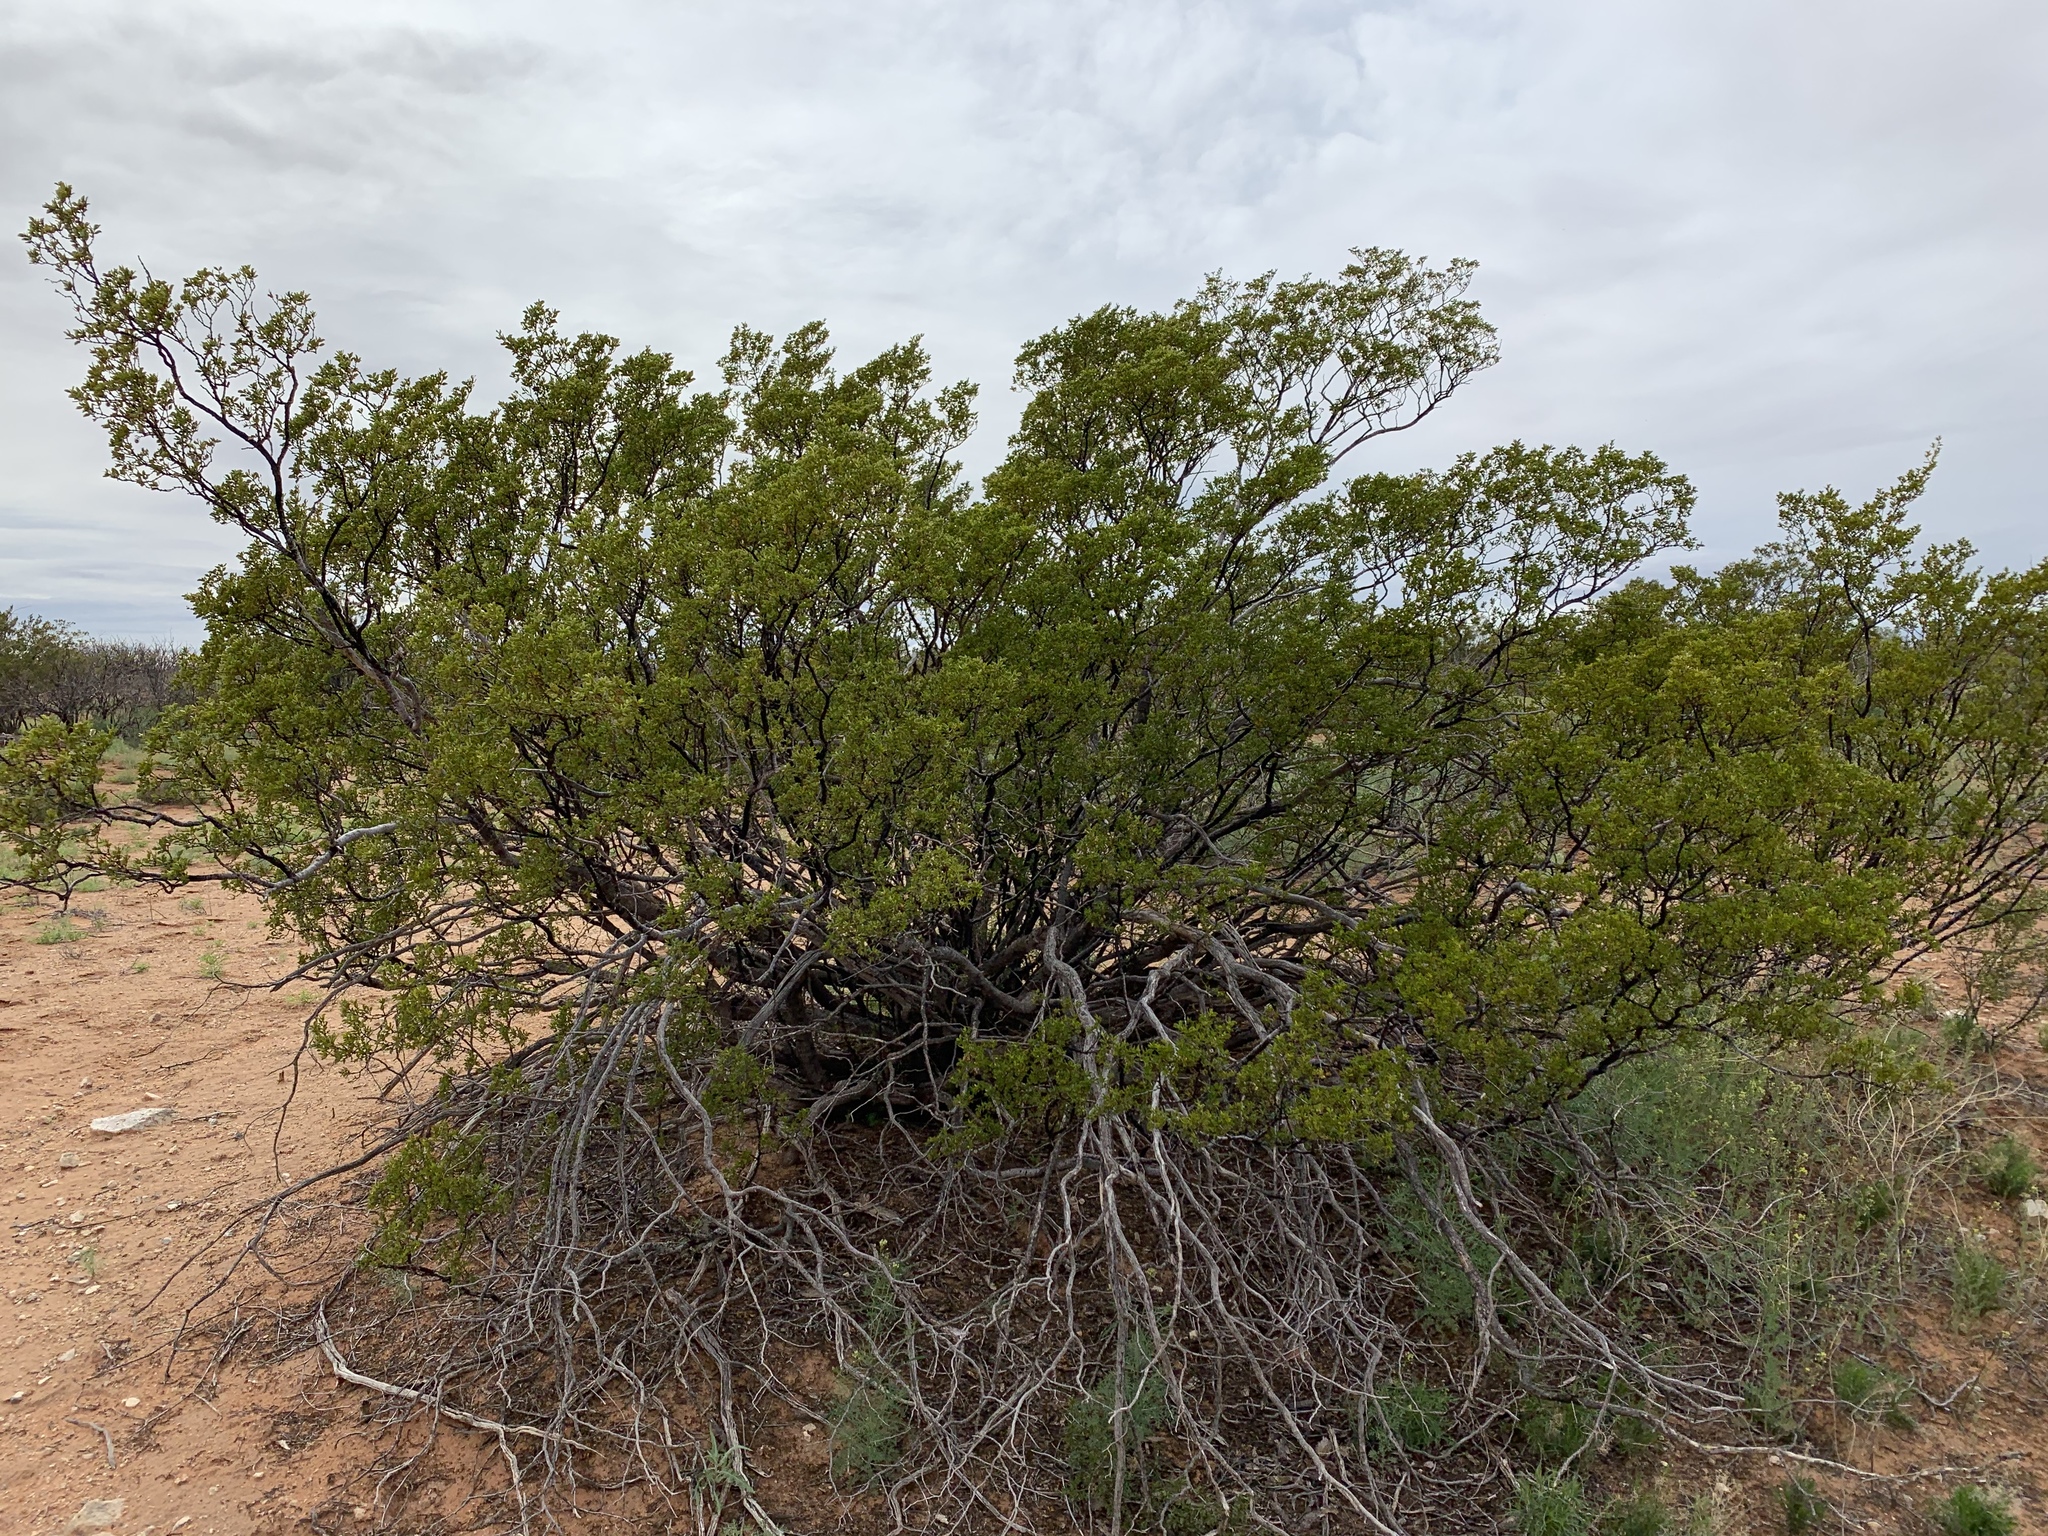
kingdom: Plantae
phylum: Tracheophyta
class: Magnoliopsida
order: Zygophyllales
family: Zygophyllaceae
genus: Larrea
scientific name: Larrea tridentata
